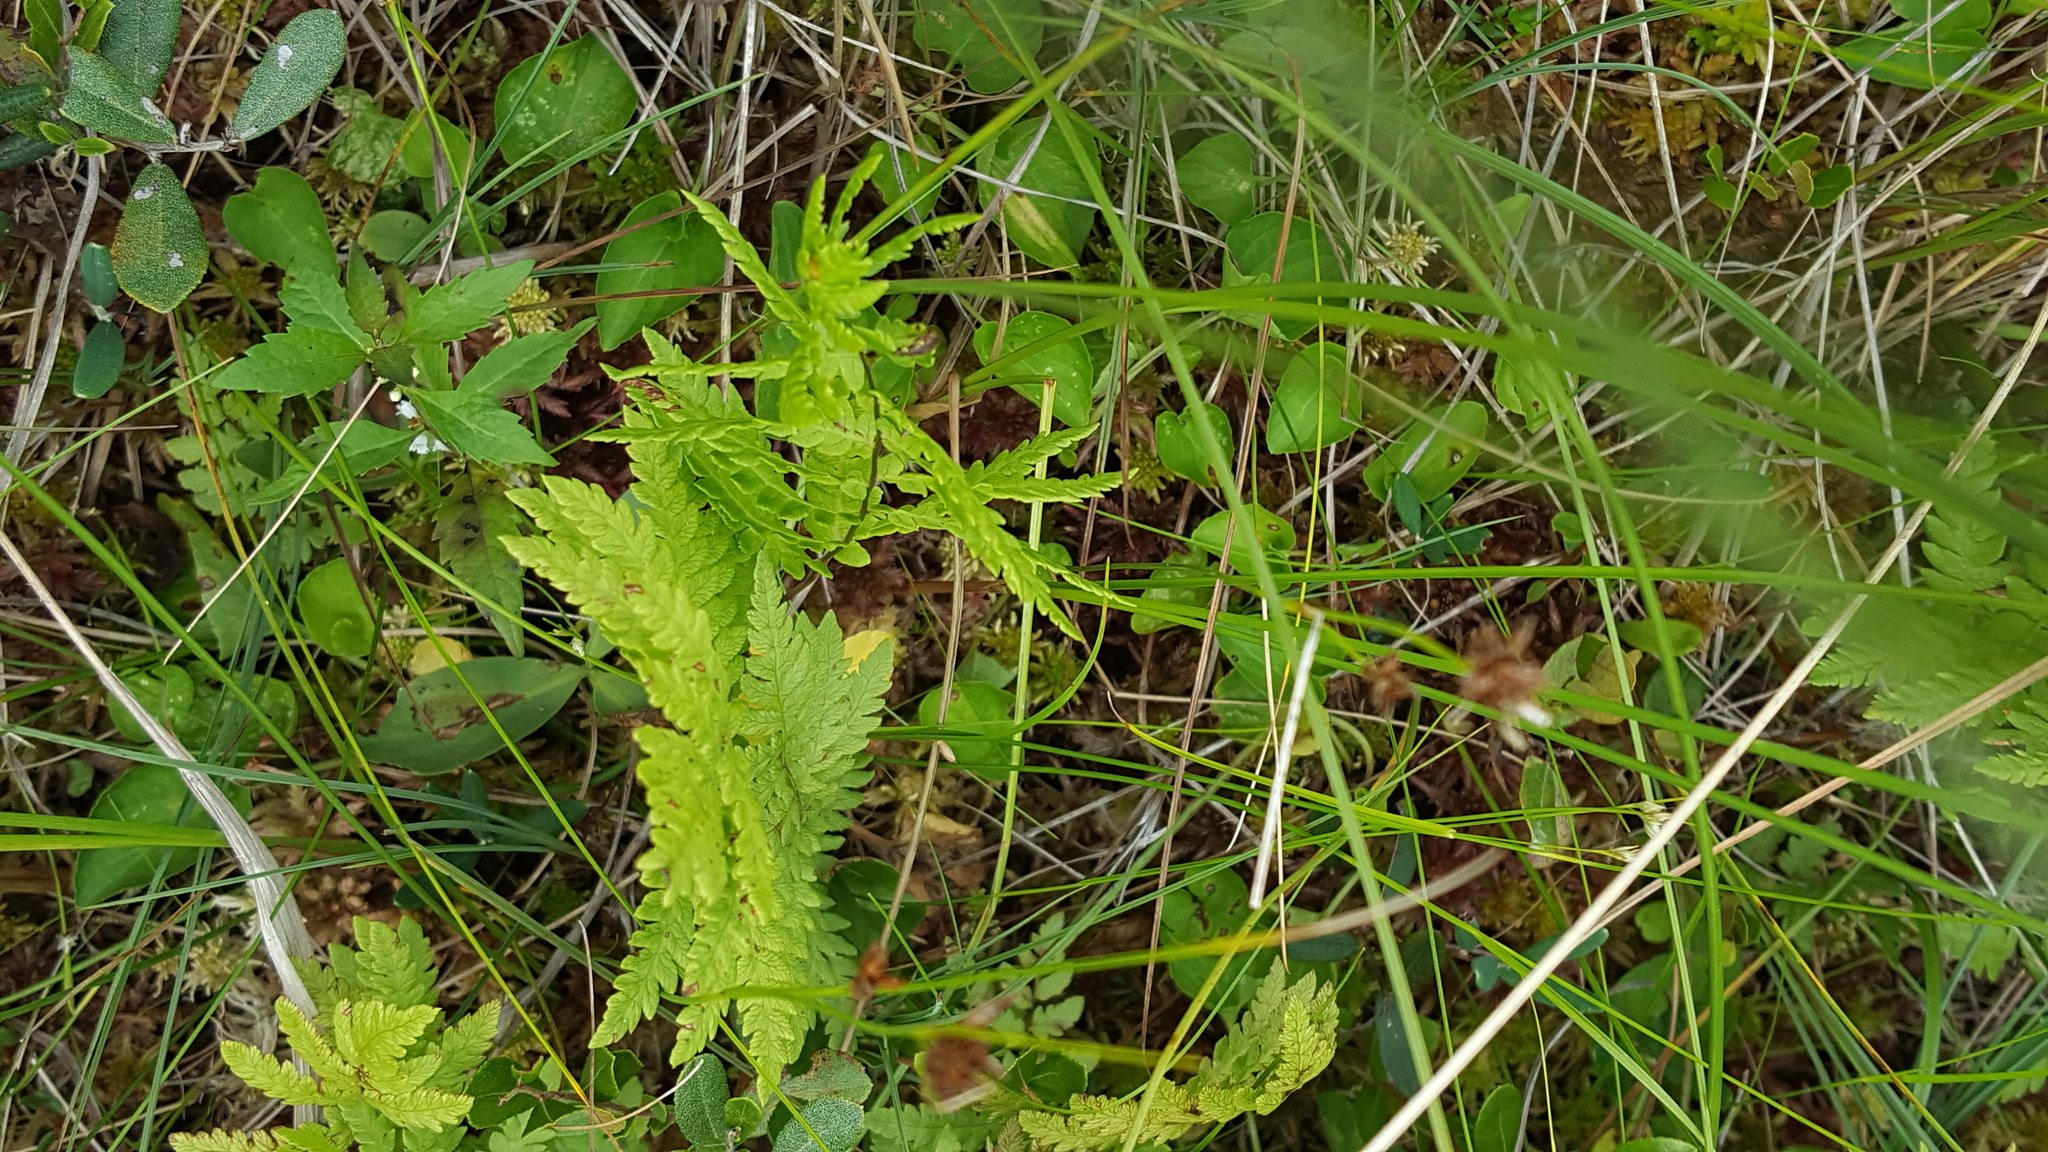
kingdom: Plantae
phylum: Tracheophyta
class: Polypodiopsida
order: Polypodiales
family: Thelypteridaceae
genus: Thelypteris
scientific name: Thelypteris palustris
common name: Marsh fern
